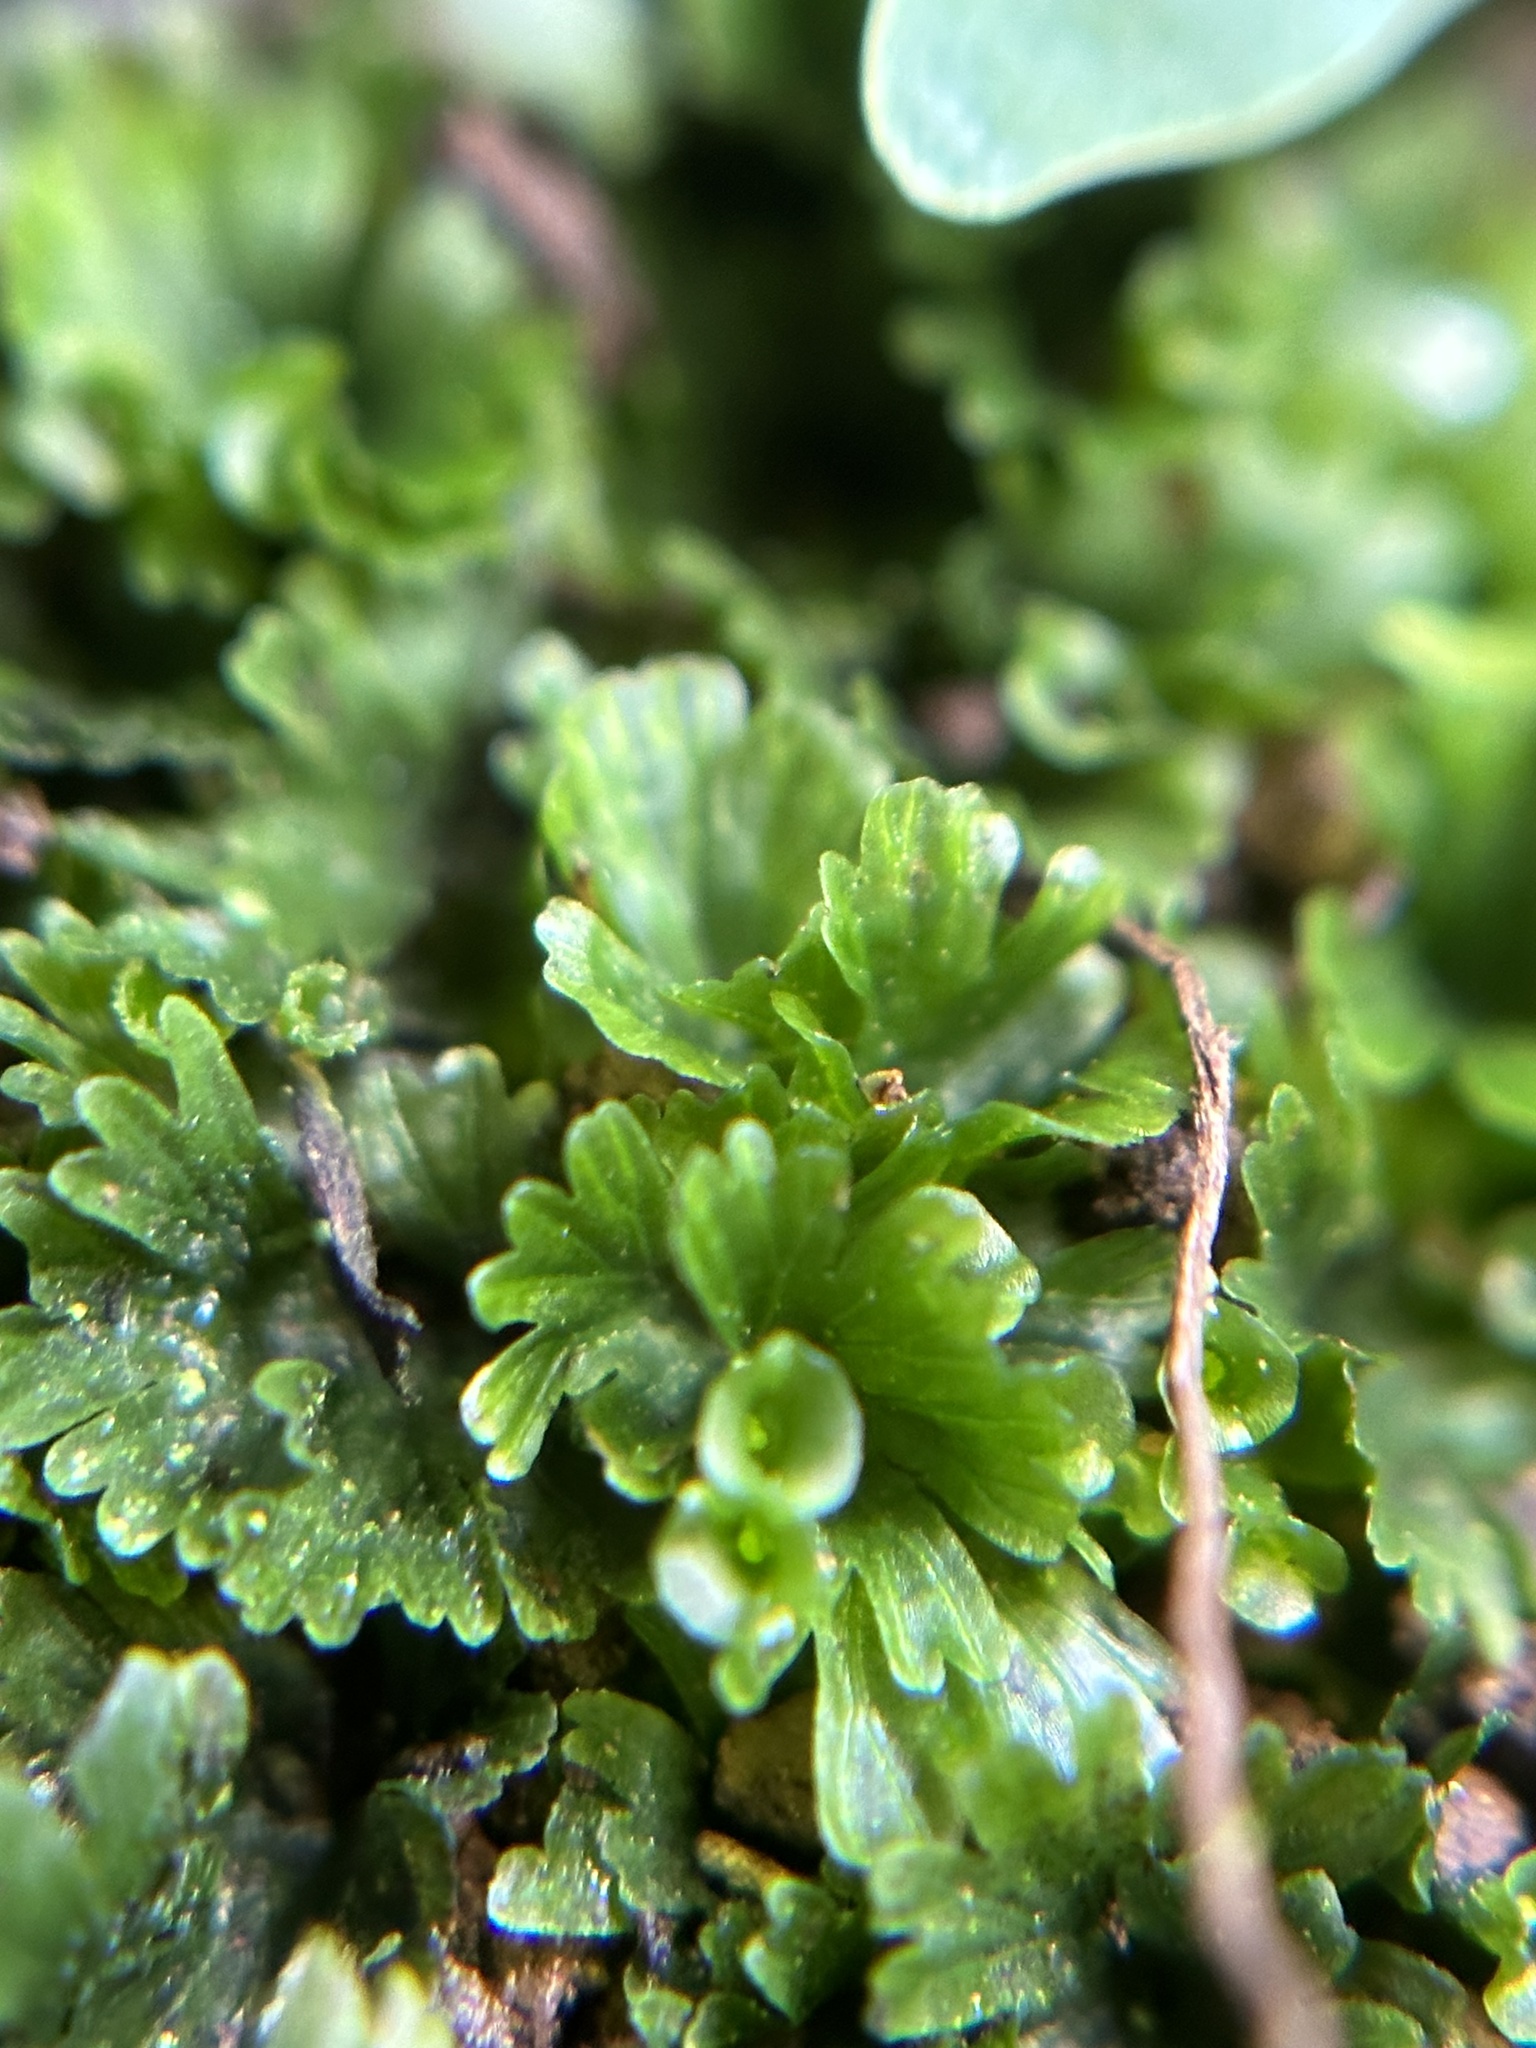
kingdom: Plantae
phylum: Tracheophyta
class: Polypodiopsida
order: Hymenophyllales
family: Hymenophyllaceae
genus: Crepidomanes
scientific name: Crepidomanes parvulum
